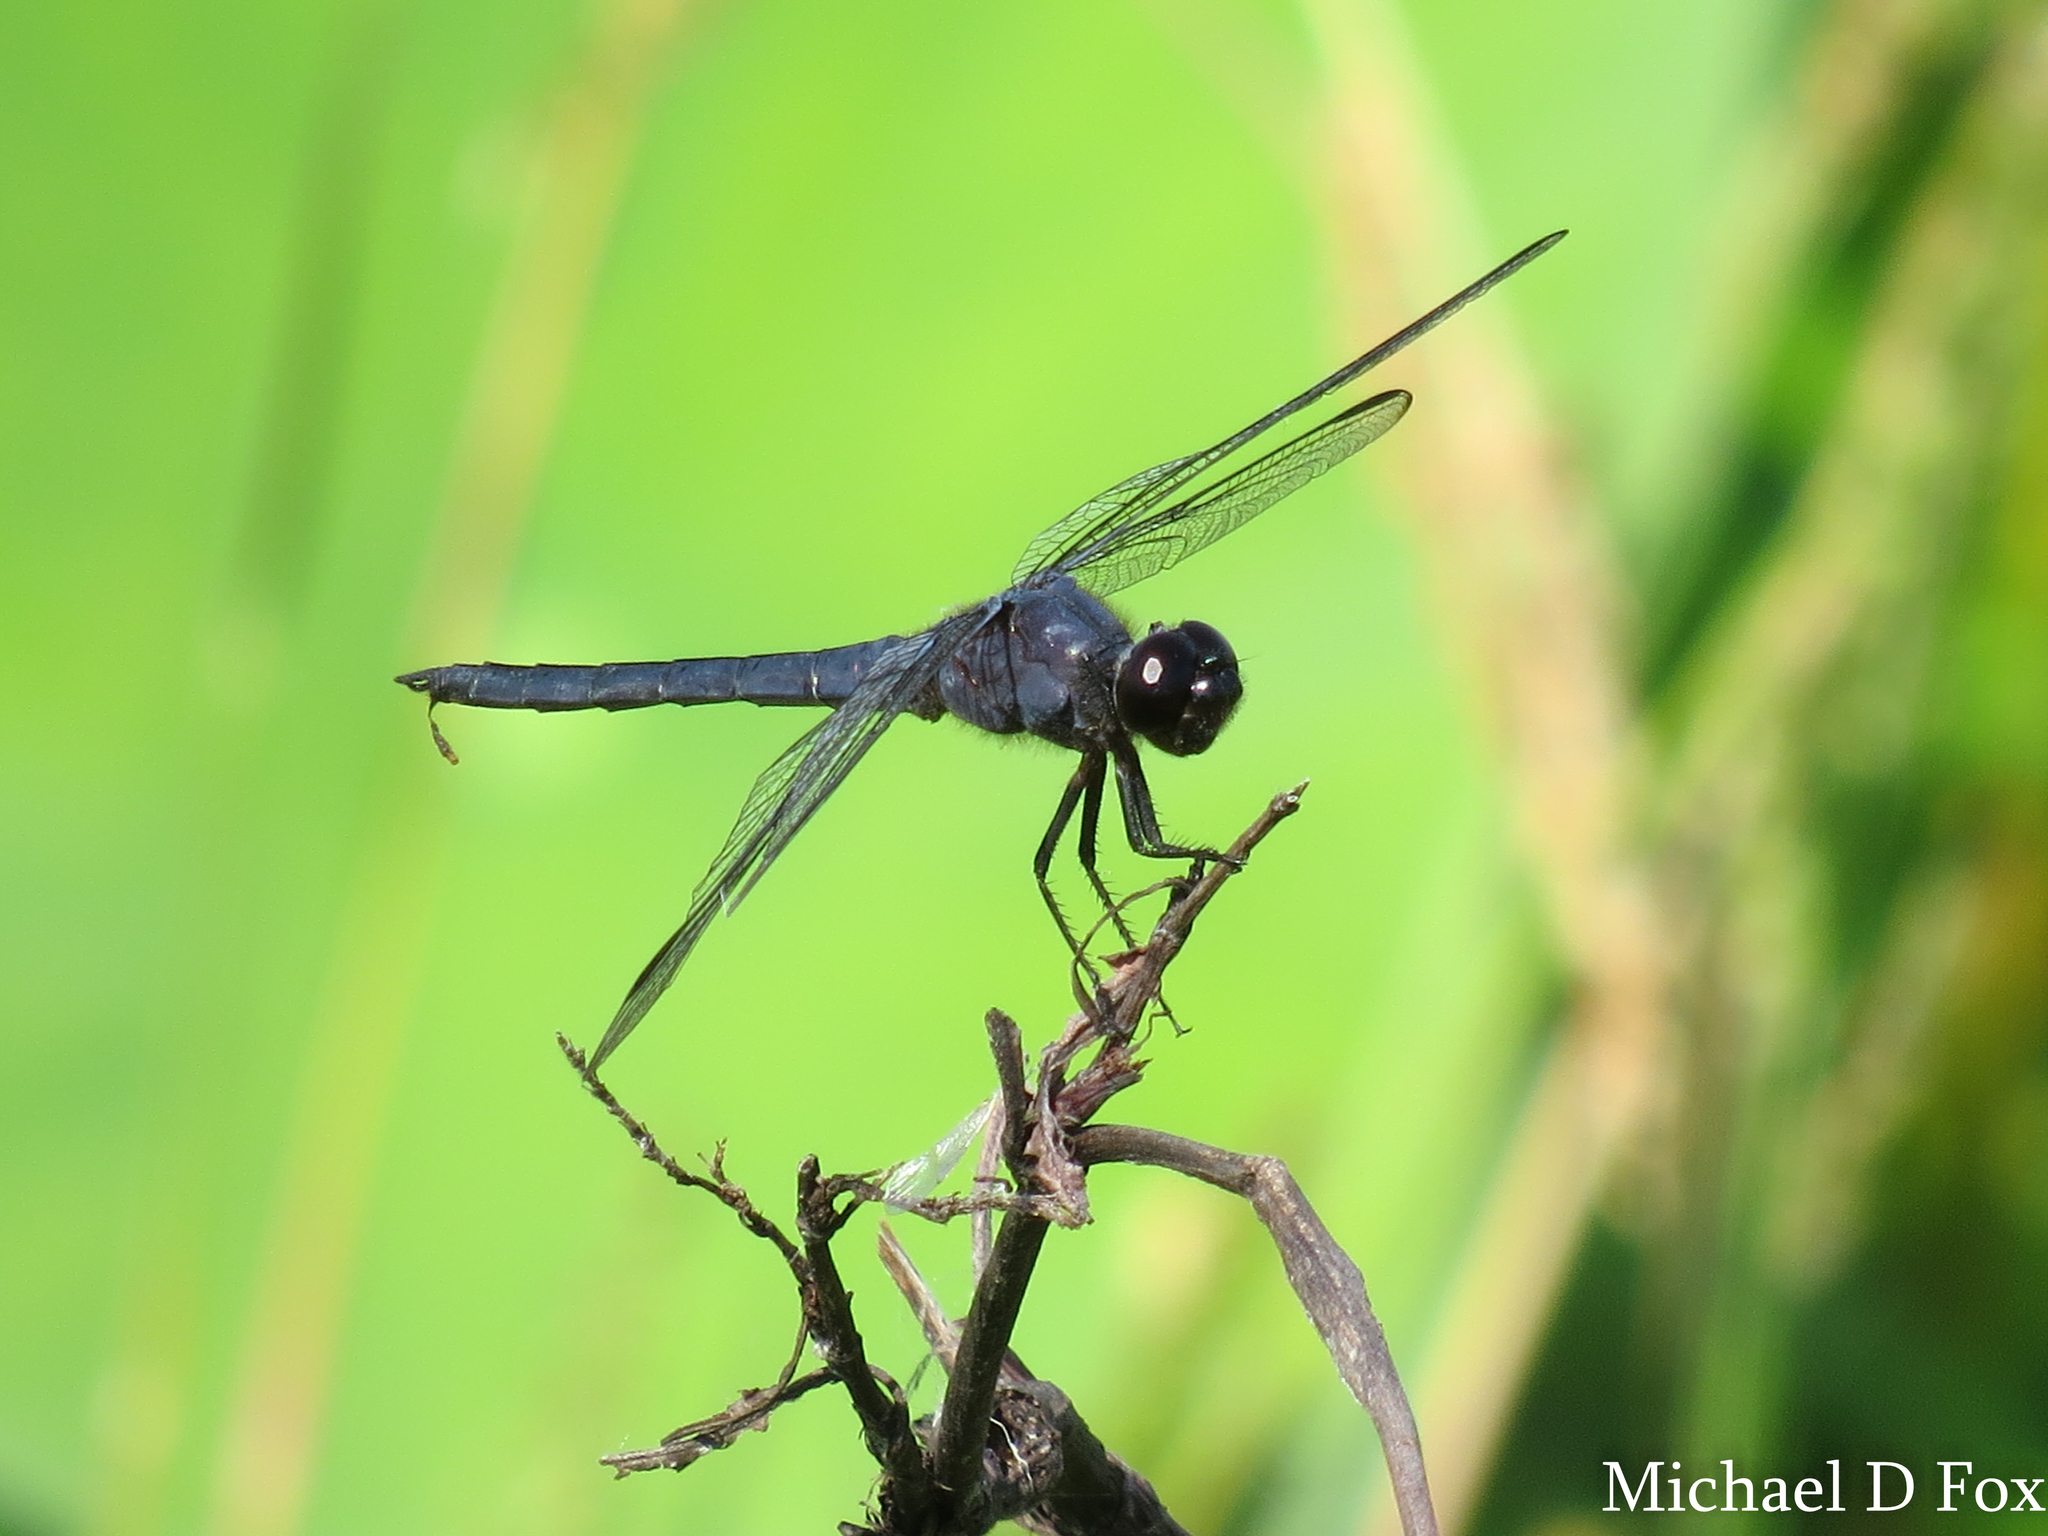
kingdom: Animalia
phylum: Arthropoda
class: Insecta
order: Odonata
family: Libellulidae
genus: Libellula
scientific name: Libellula incesta
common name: Slaty skimmer
